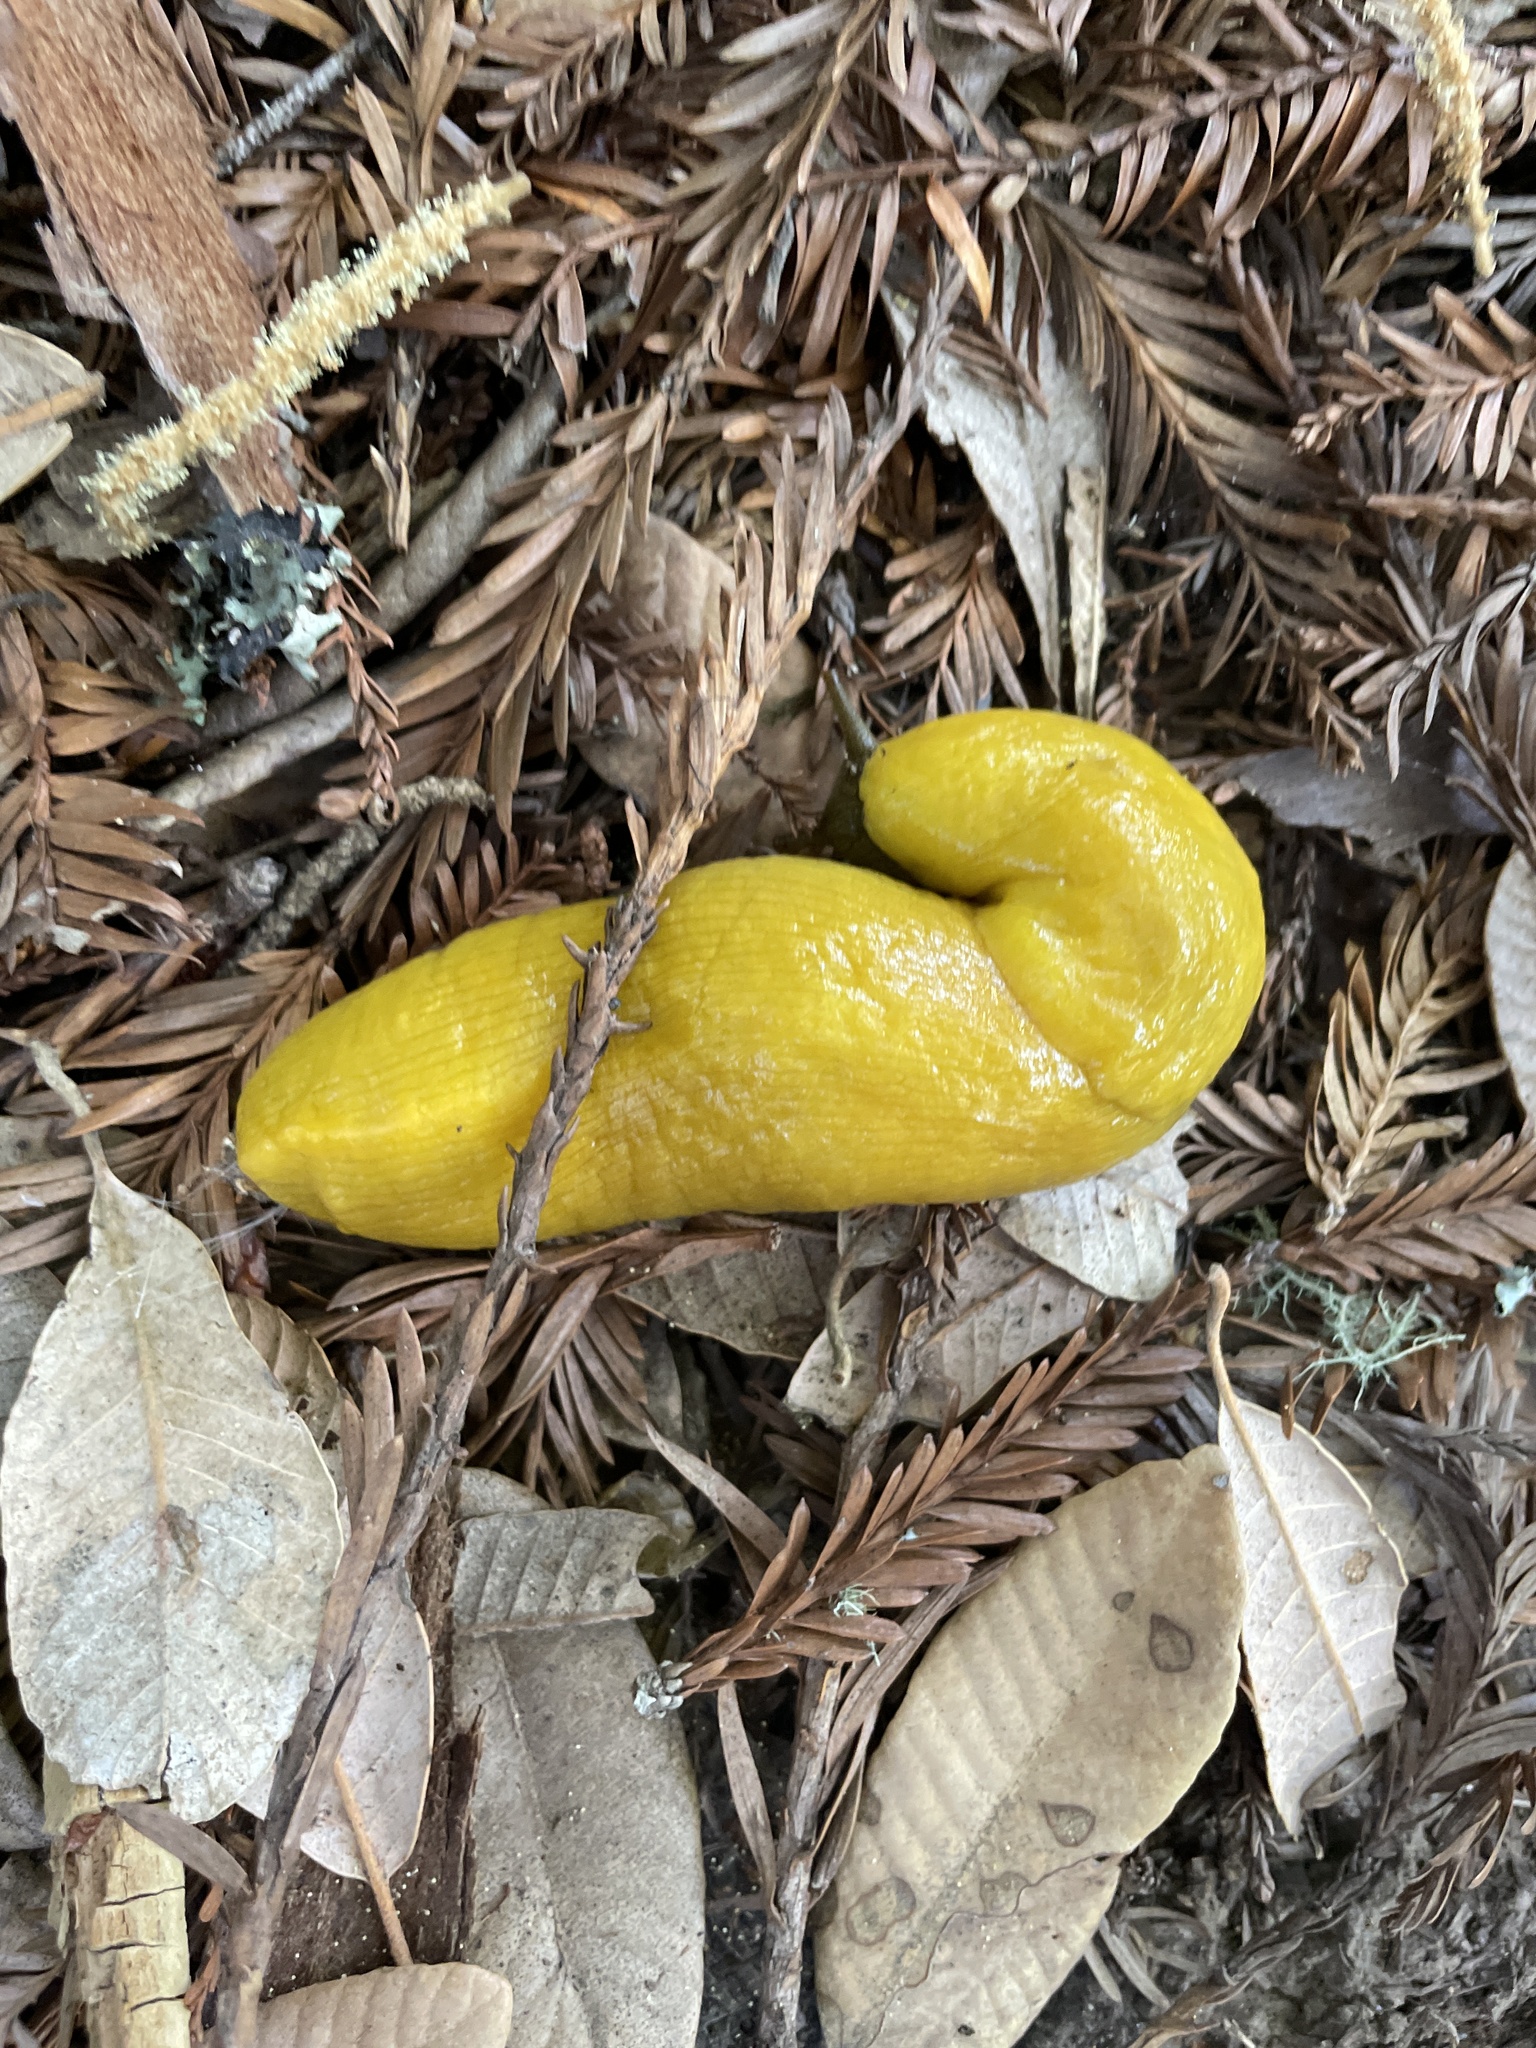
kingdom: Animalia
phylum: Mollusca
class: Gastropoda
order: Stylommatophora
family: Ariolimacidae
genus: Ariolimax
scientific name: Ariolimax californicus
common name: California banana slug
